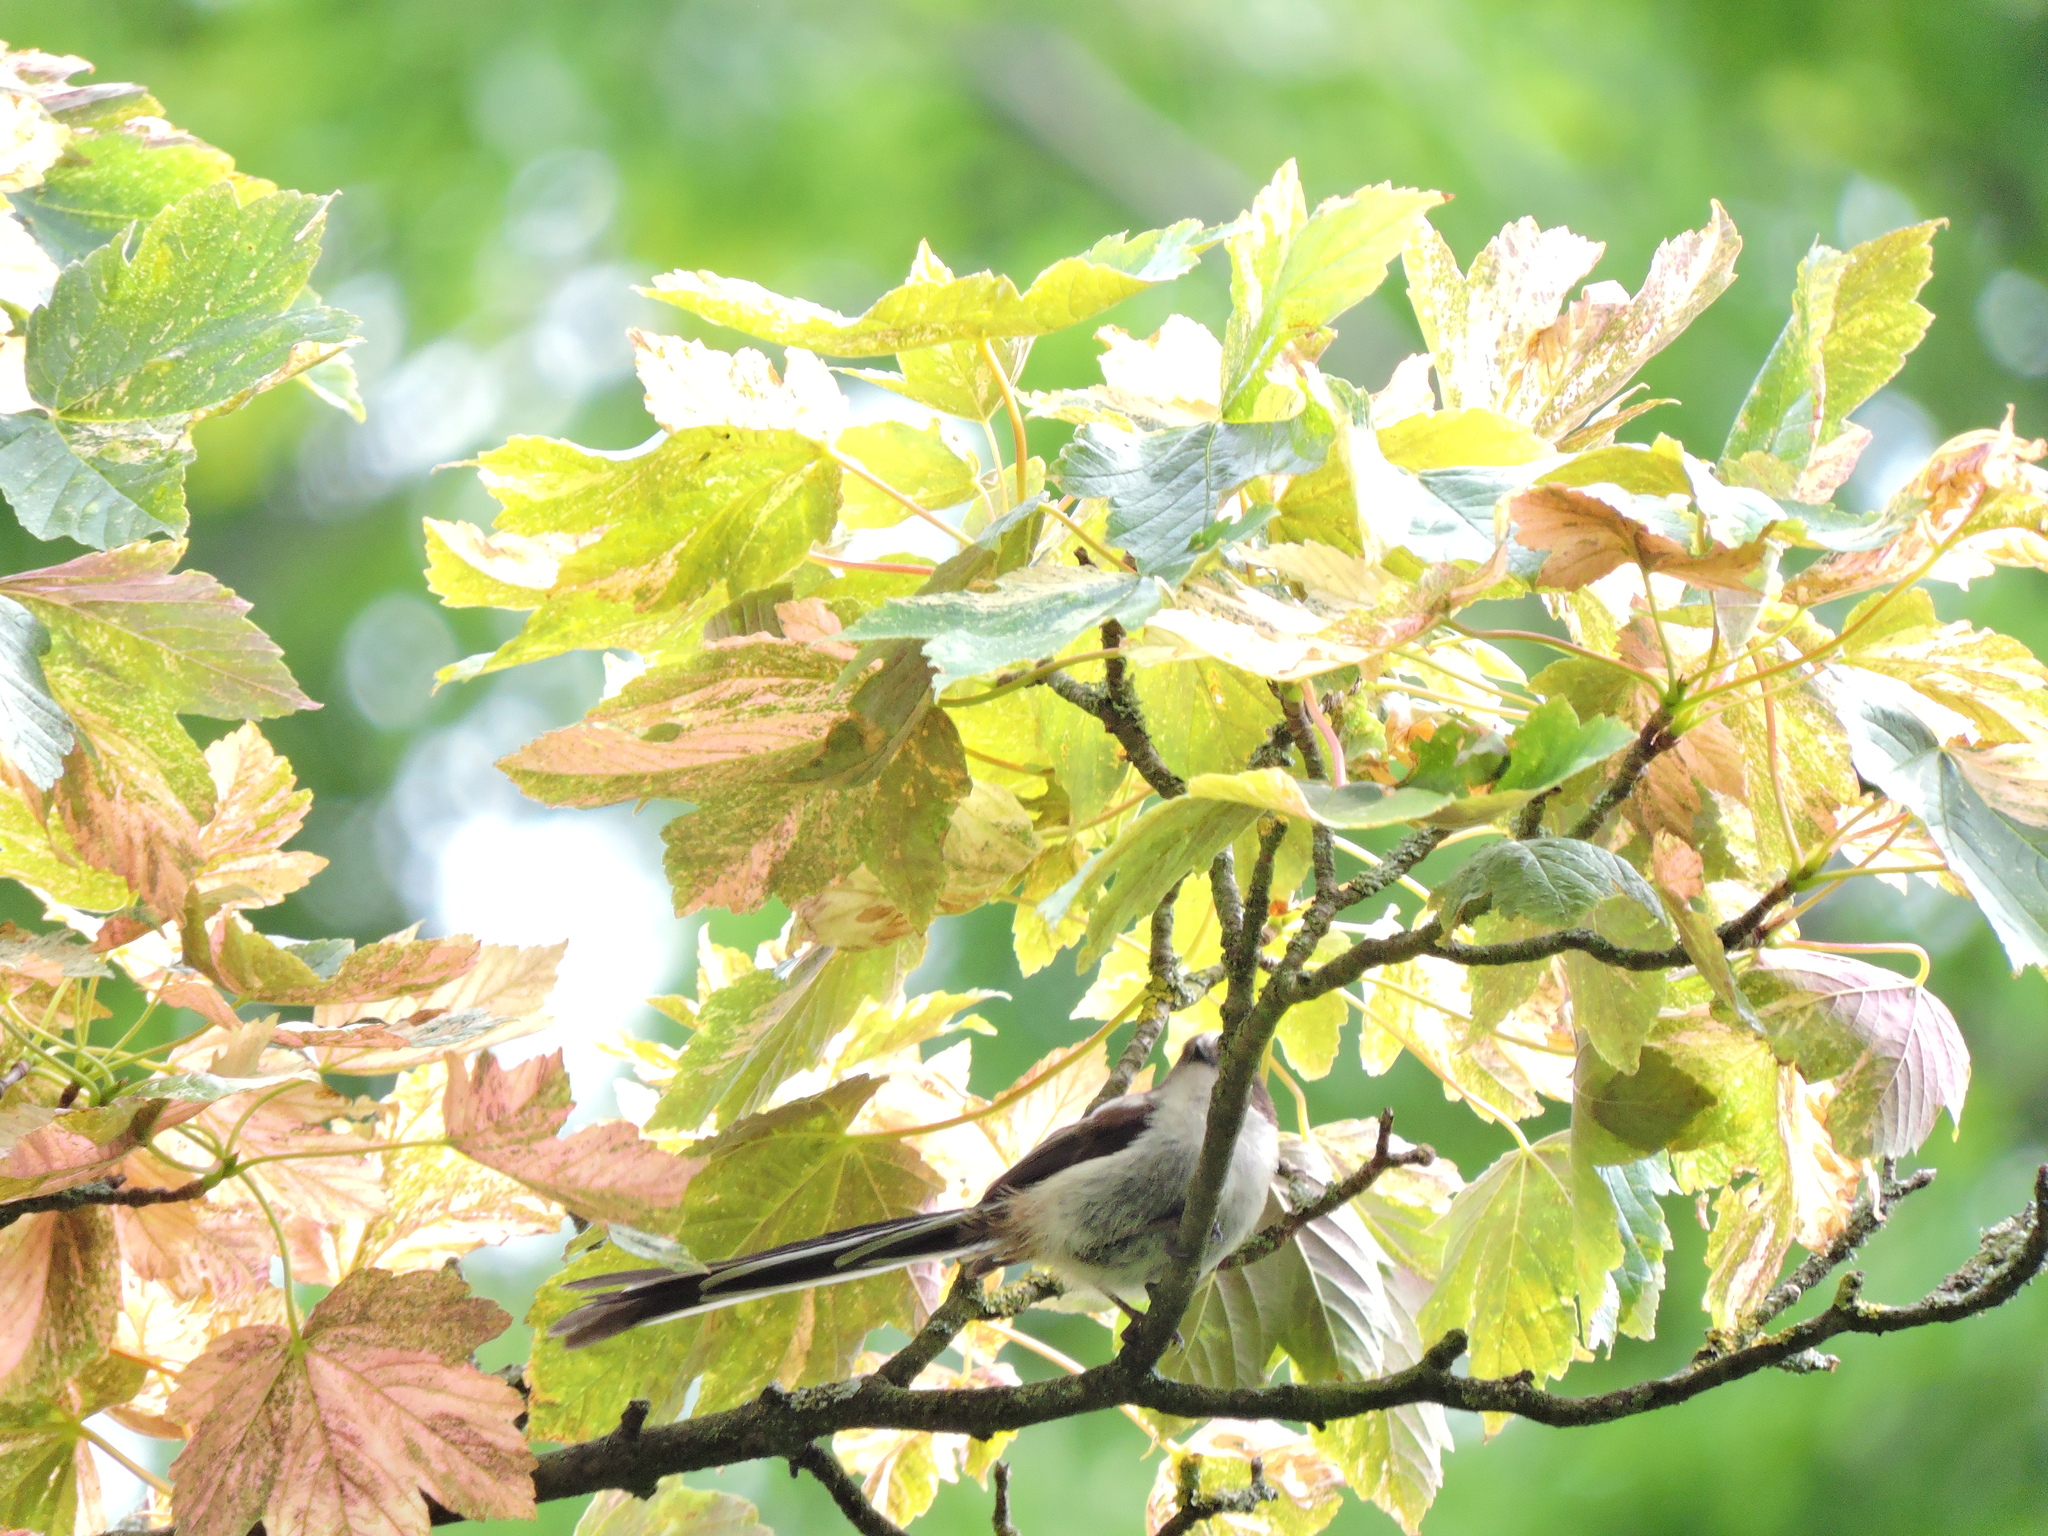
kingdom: Animalia
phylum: Chordata
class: Aves
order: Passeriformes
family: Aegithalidae
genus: Aegithalos
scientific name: Aegithalos caudatus
